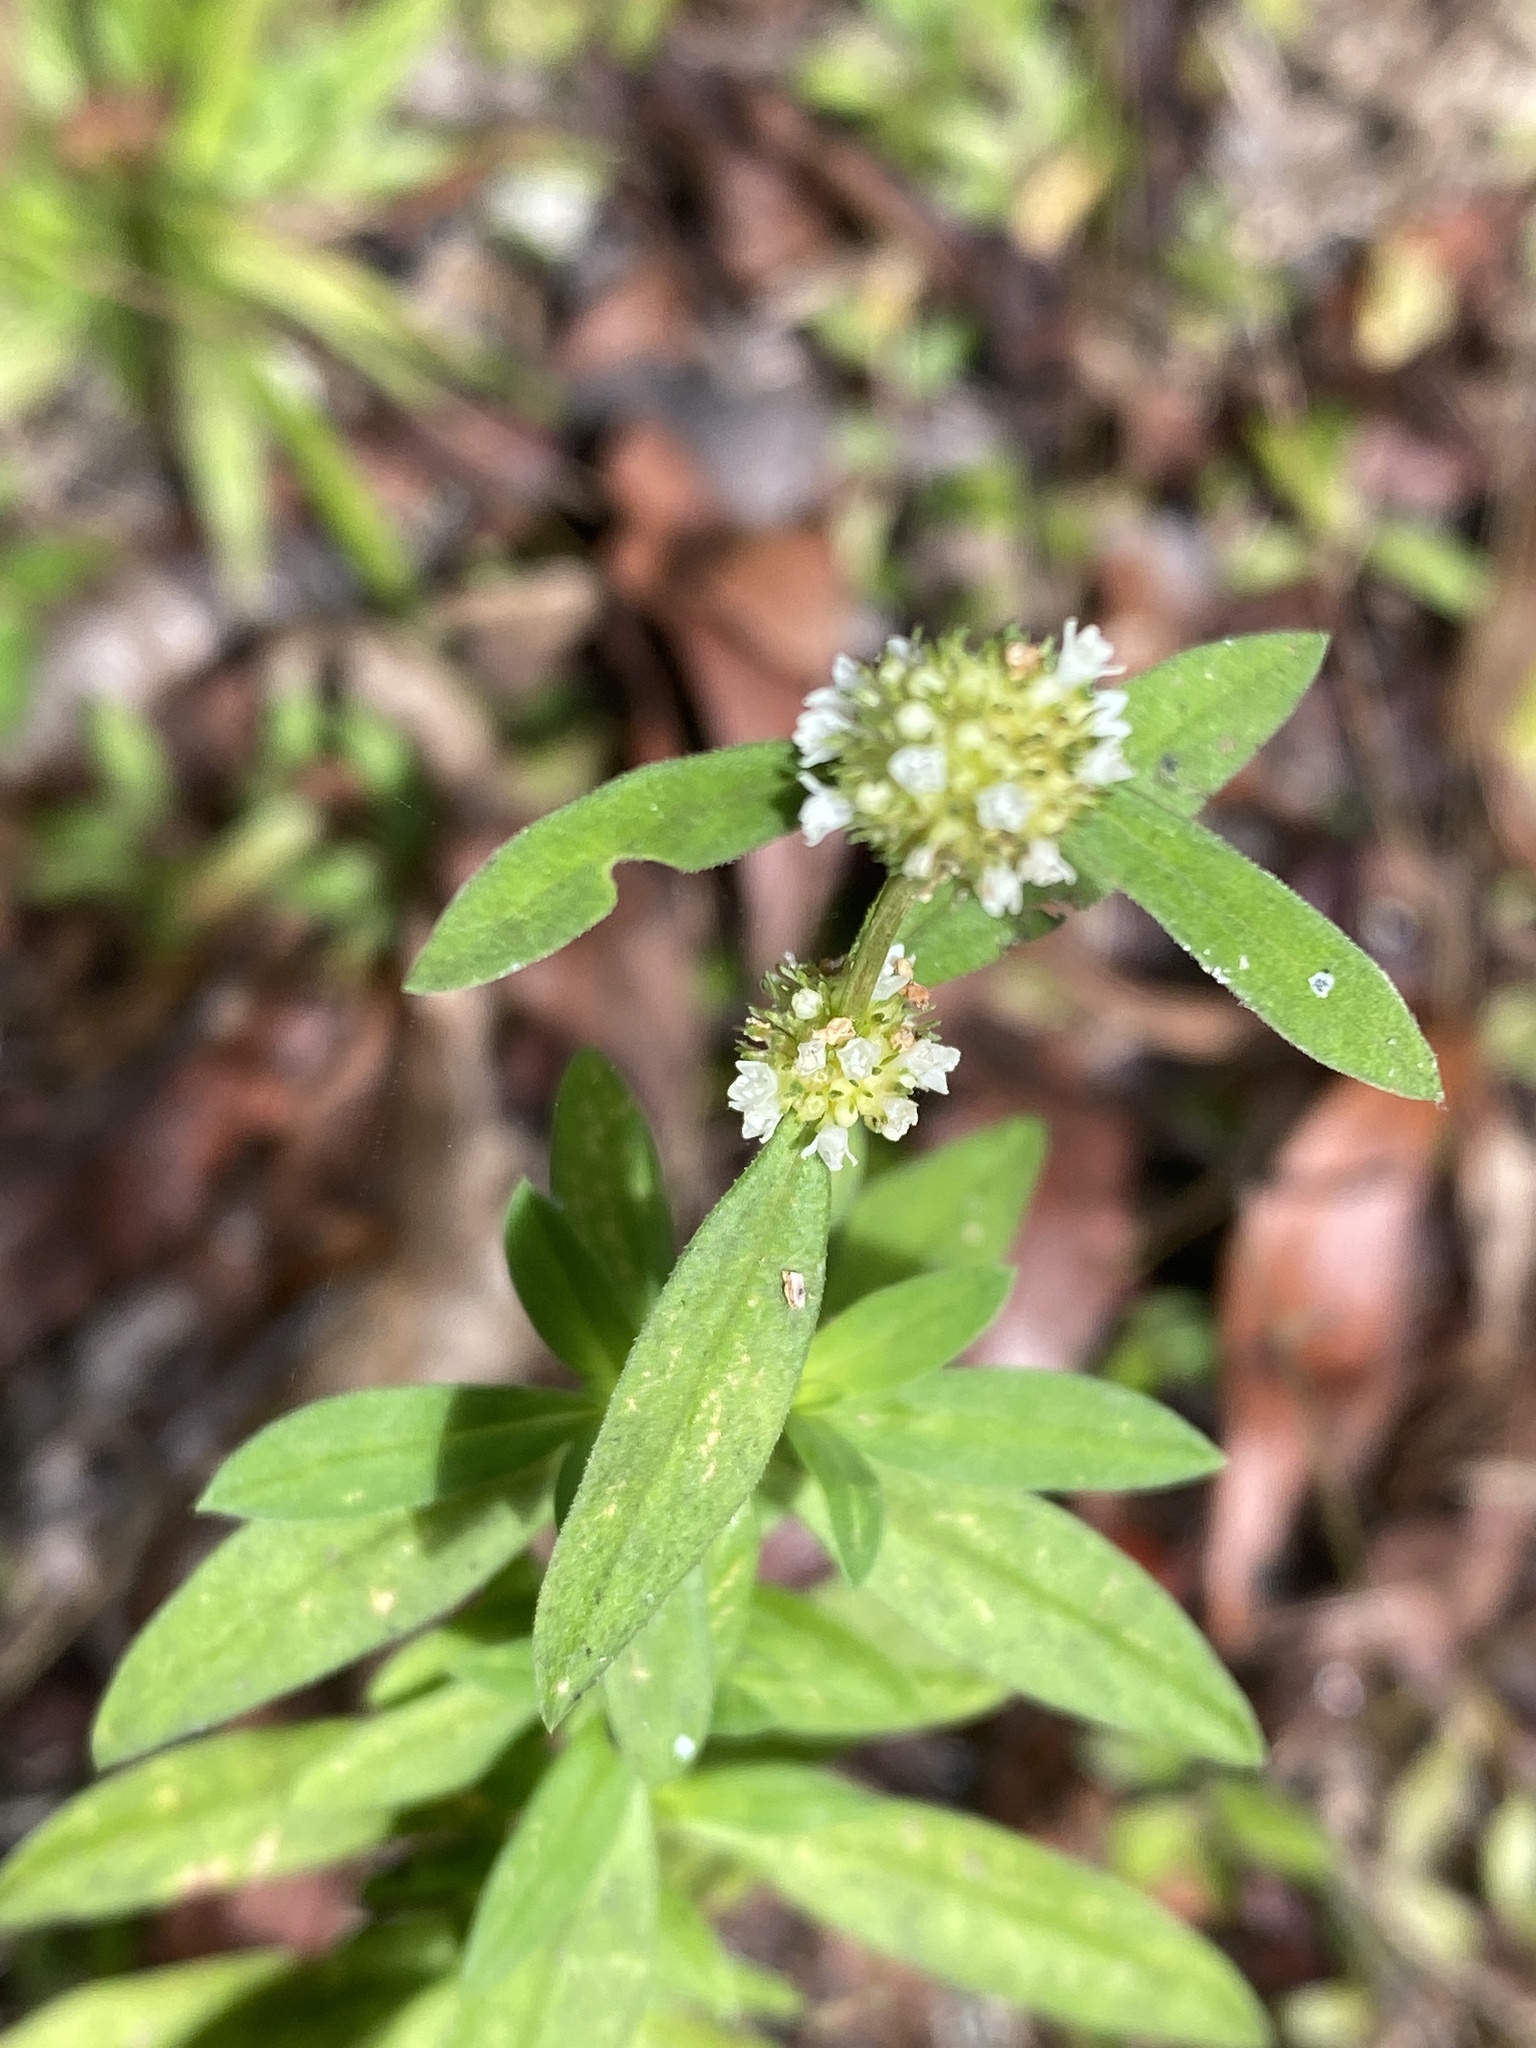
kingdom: Plantae
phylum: Tracheophyta
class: Magnoliopsida
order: Gentianales
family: Rubiaceae
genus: Spermacoce
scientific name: Spermacoce verticillata
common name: Shrubby false buttonweed
